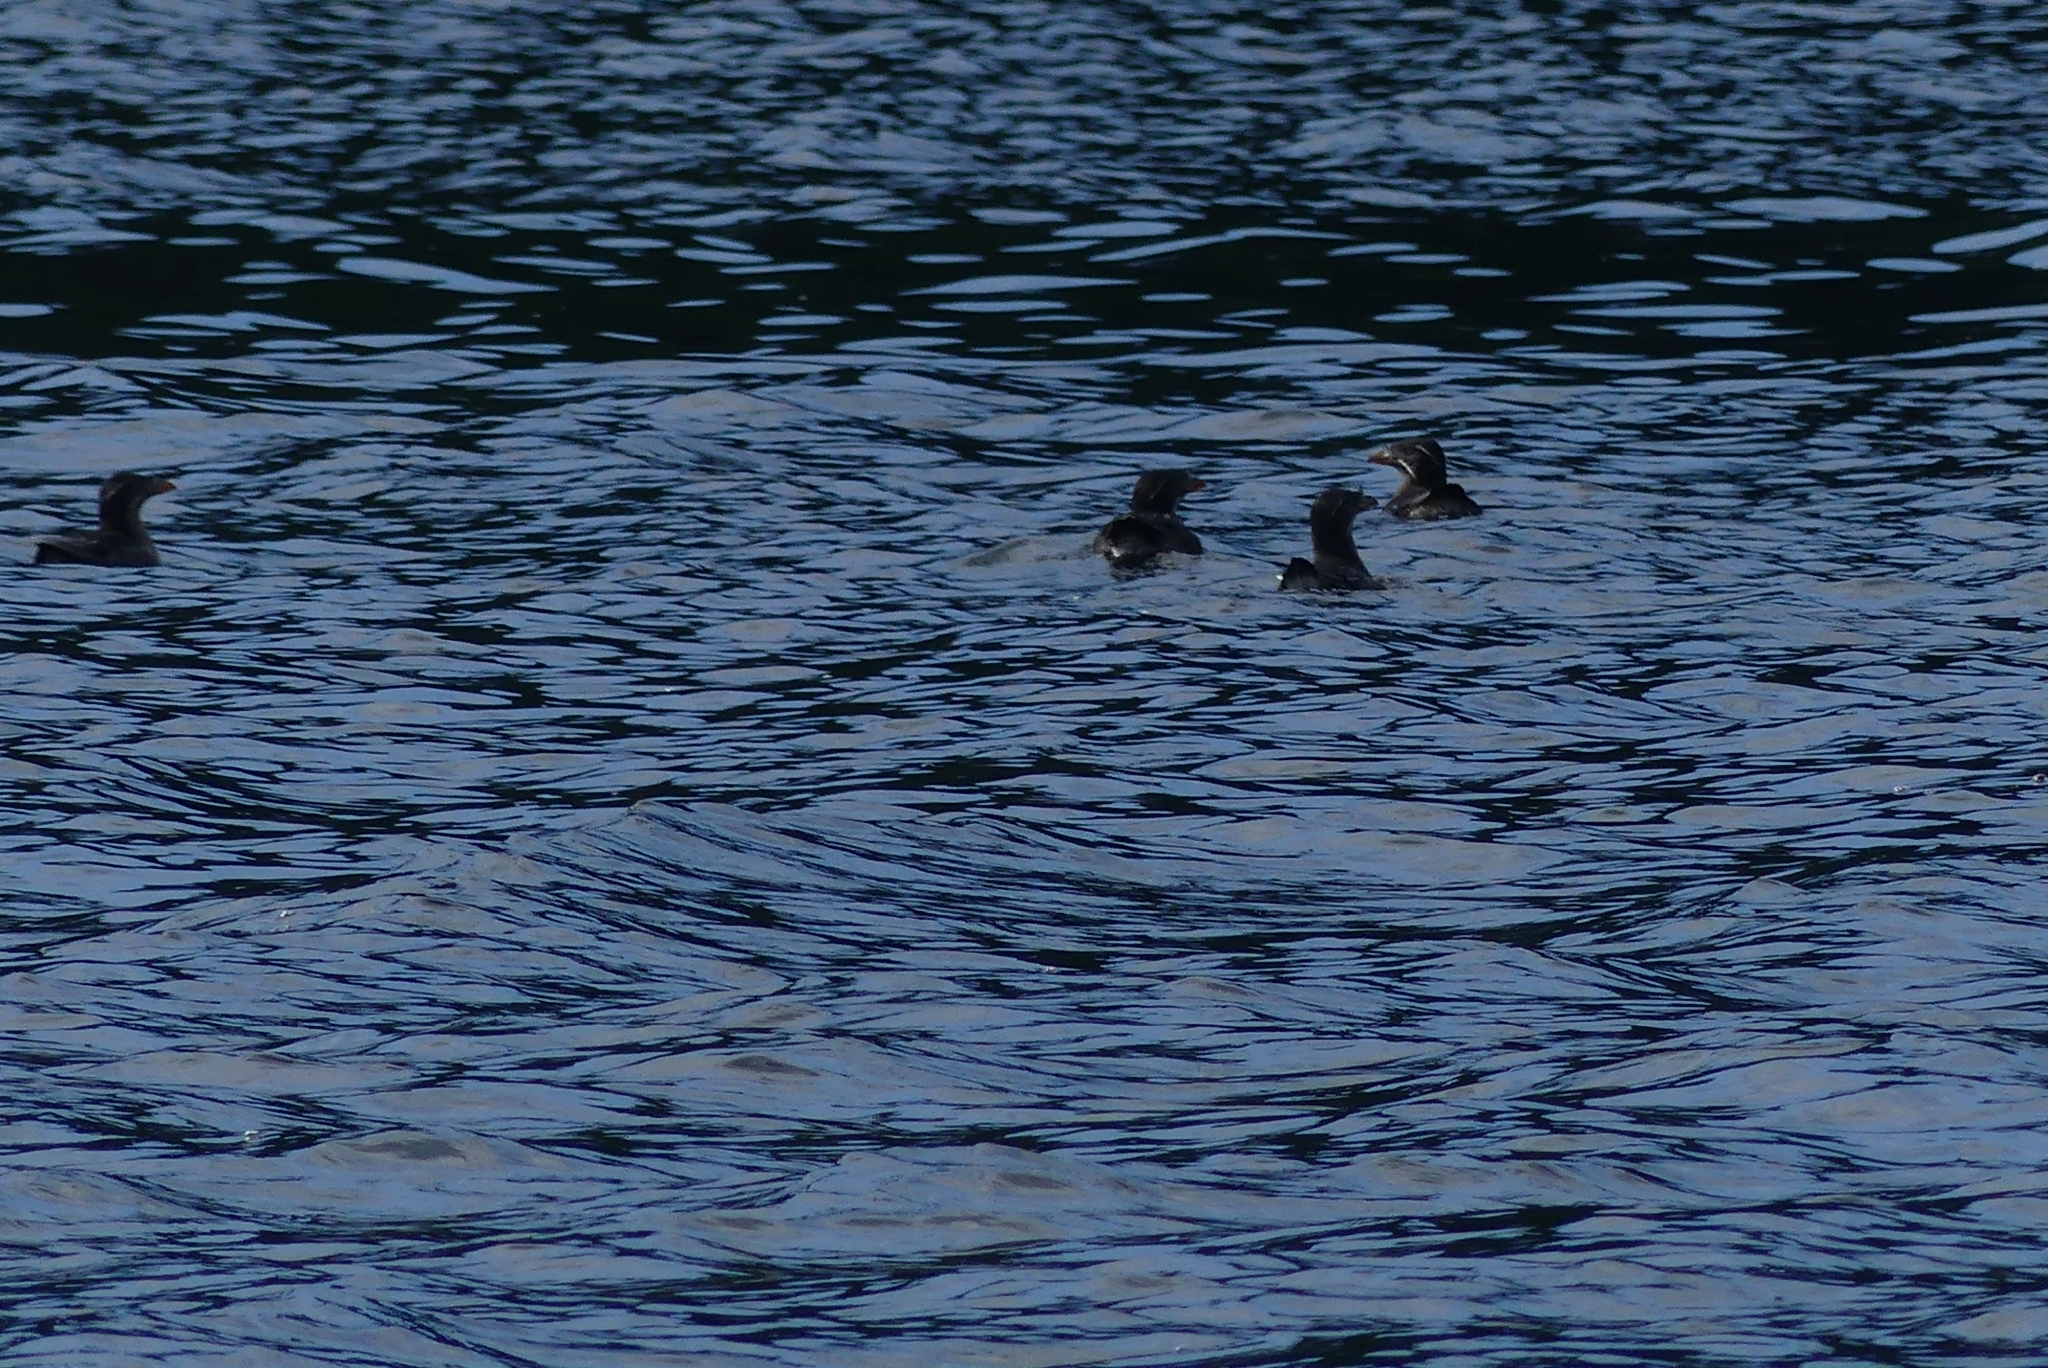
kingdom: Animalia
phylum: Chordata
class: Aves
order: Charadriiformes
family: Alcidae
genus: Cerorhinca
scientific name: Cerorhinca monocerata
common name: Rhinoceros auklet
